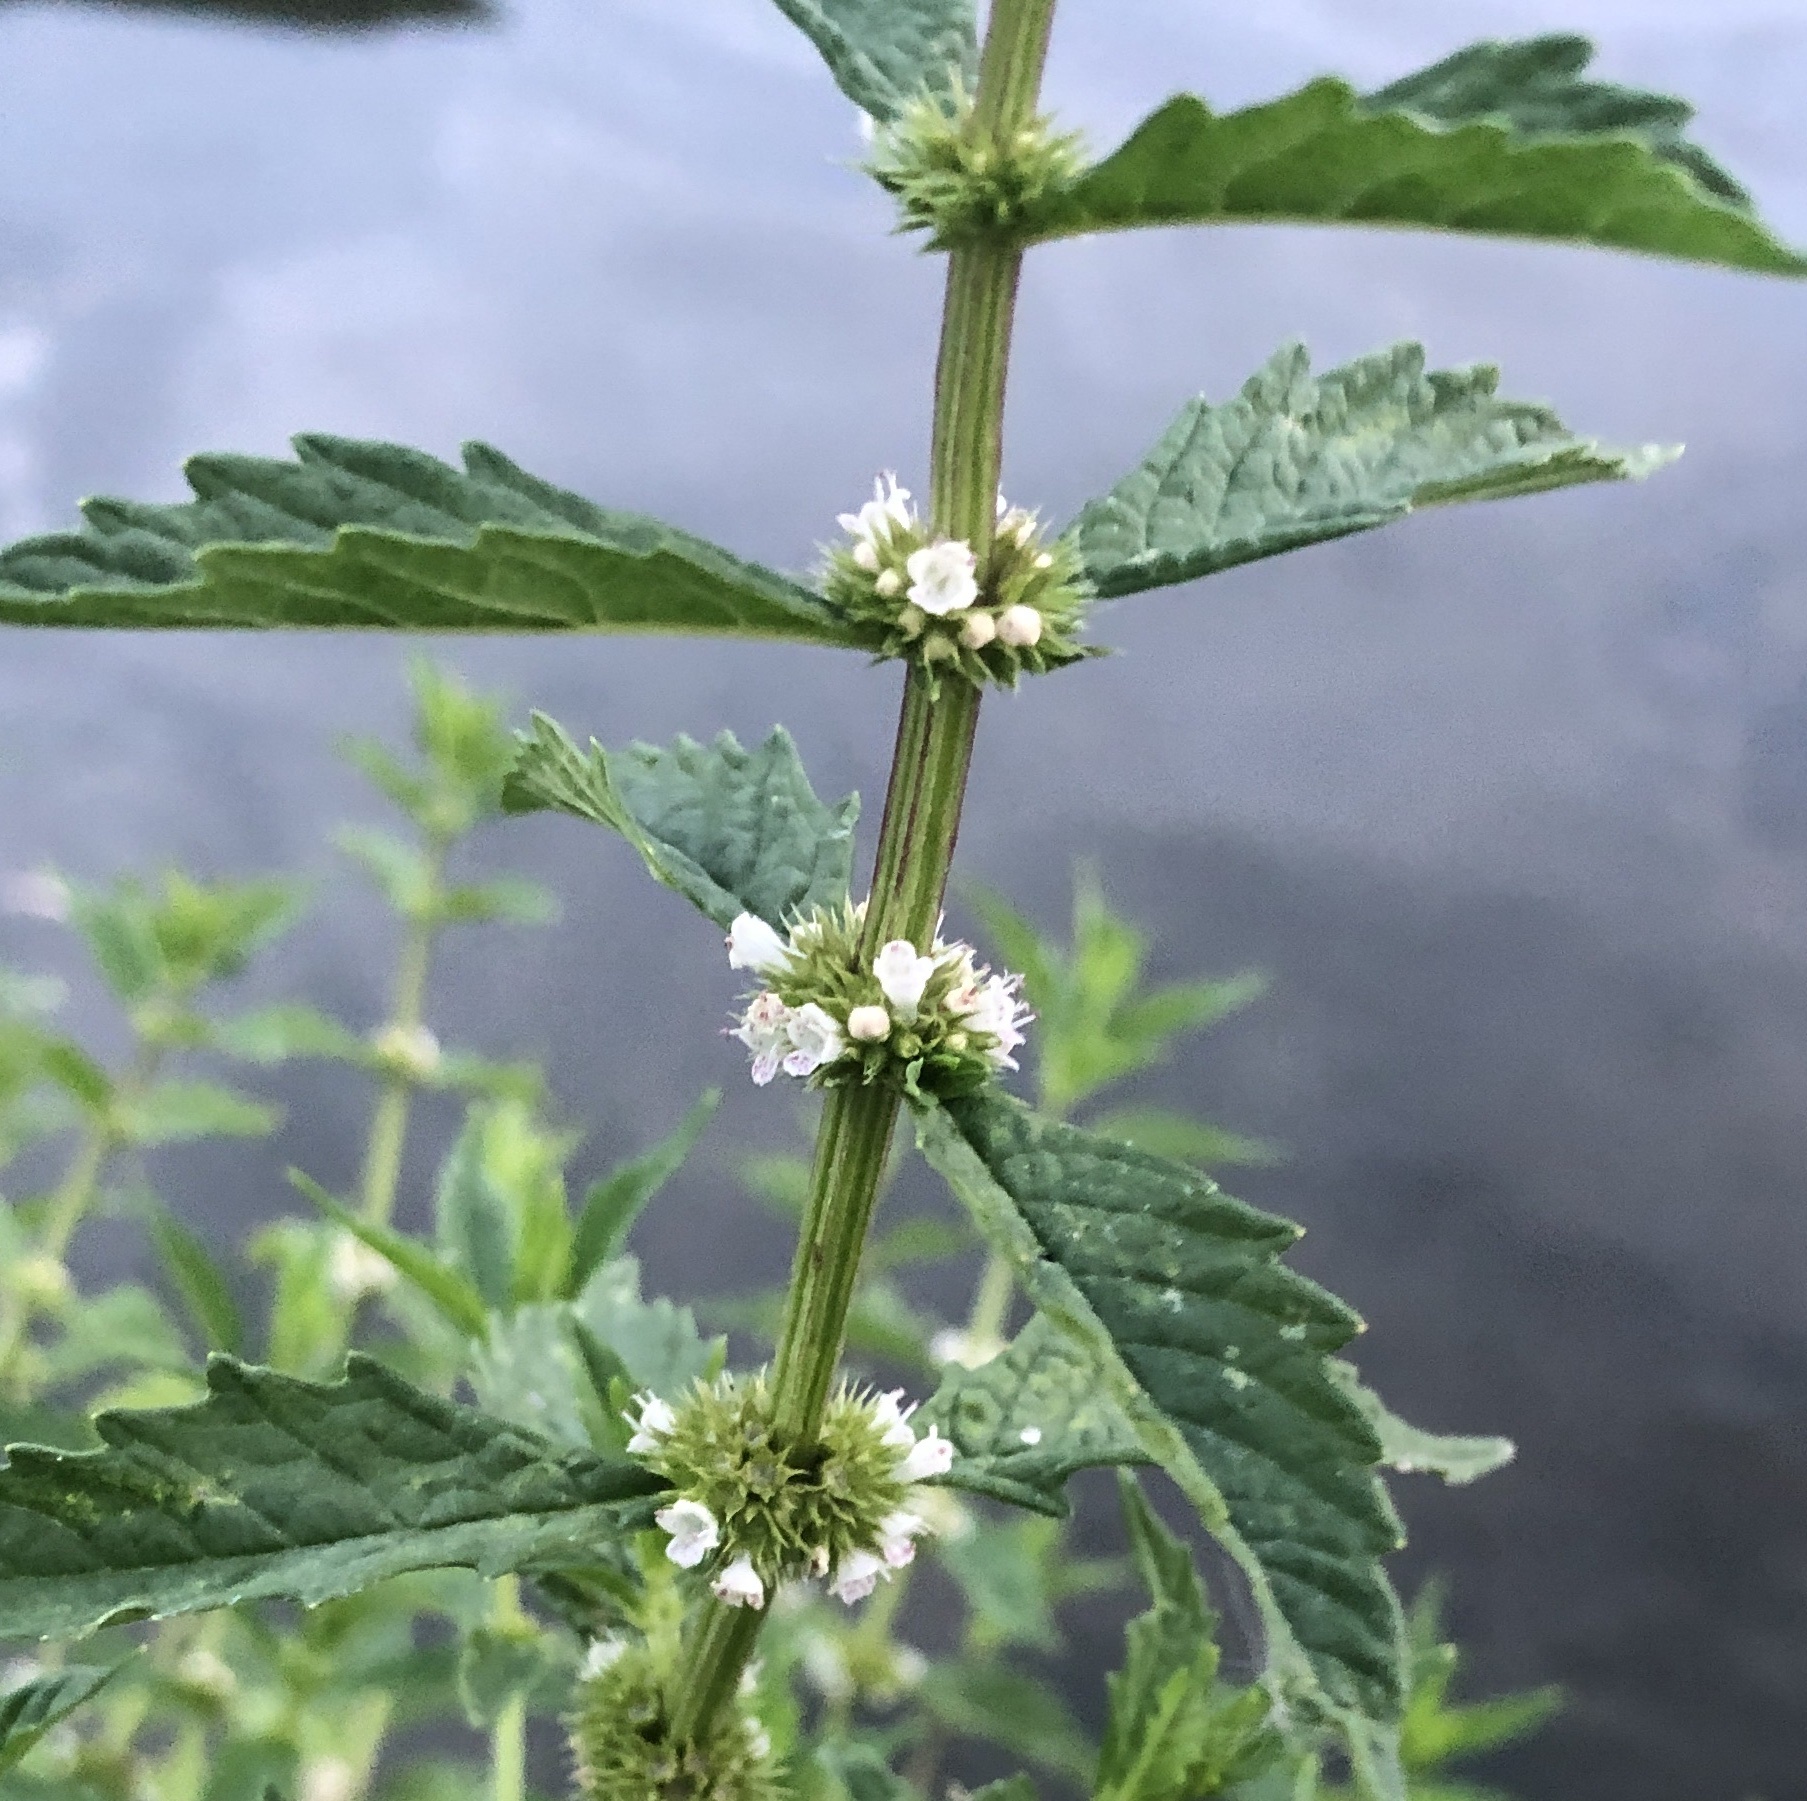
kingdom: Plantae
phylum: Tracheophyta
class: Magnoliopsida
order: Lamiales
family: Lamiaceae
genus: Lycopus
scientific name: Lycopus europaeus
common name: European bugleweed
